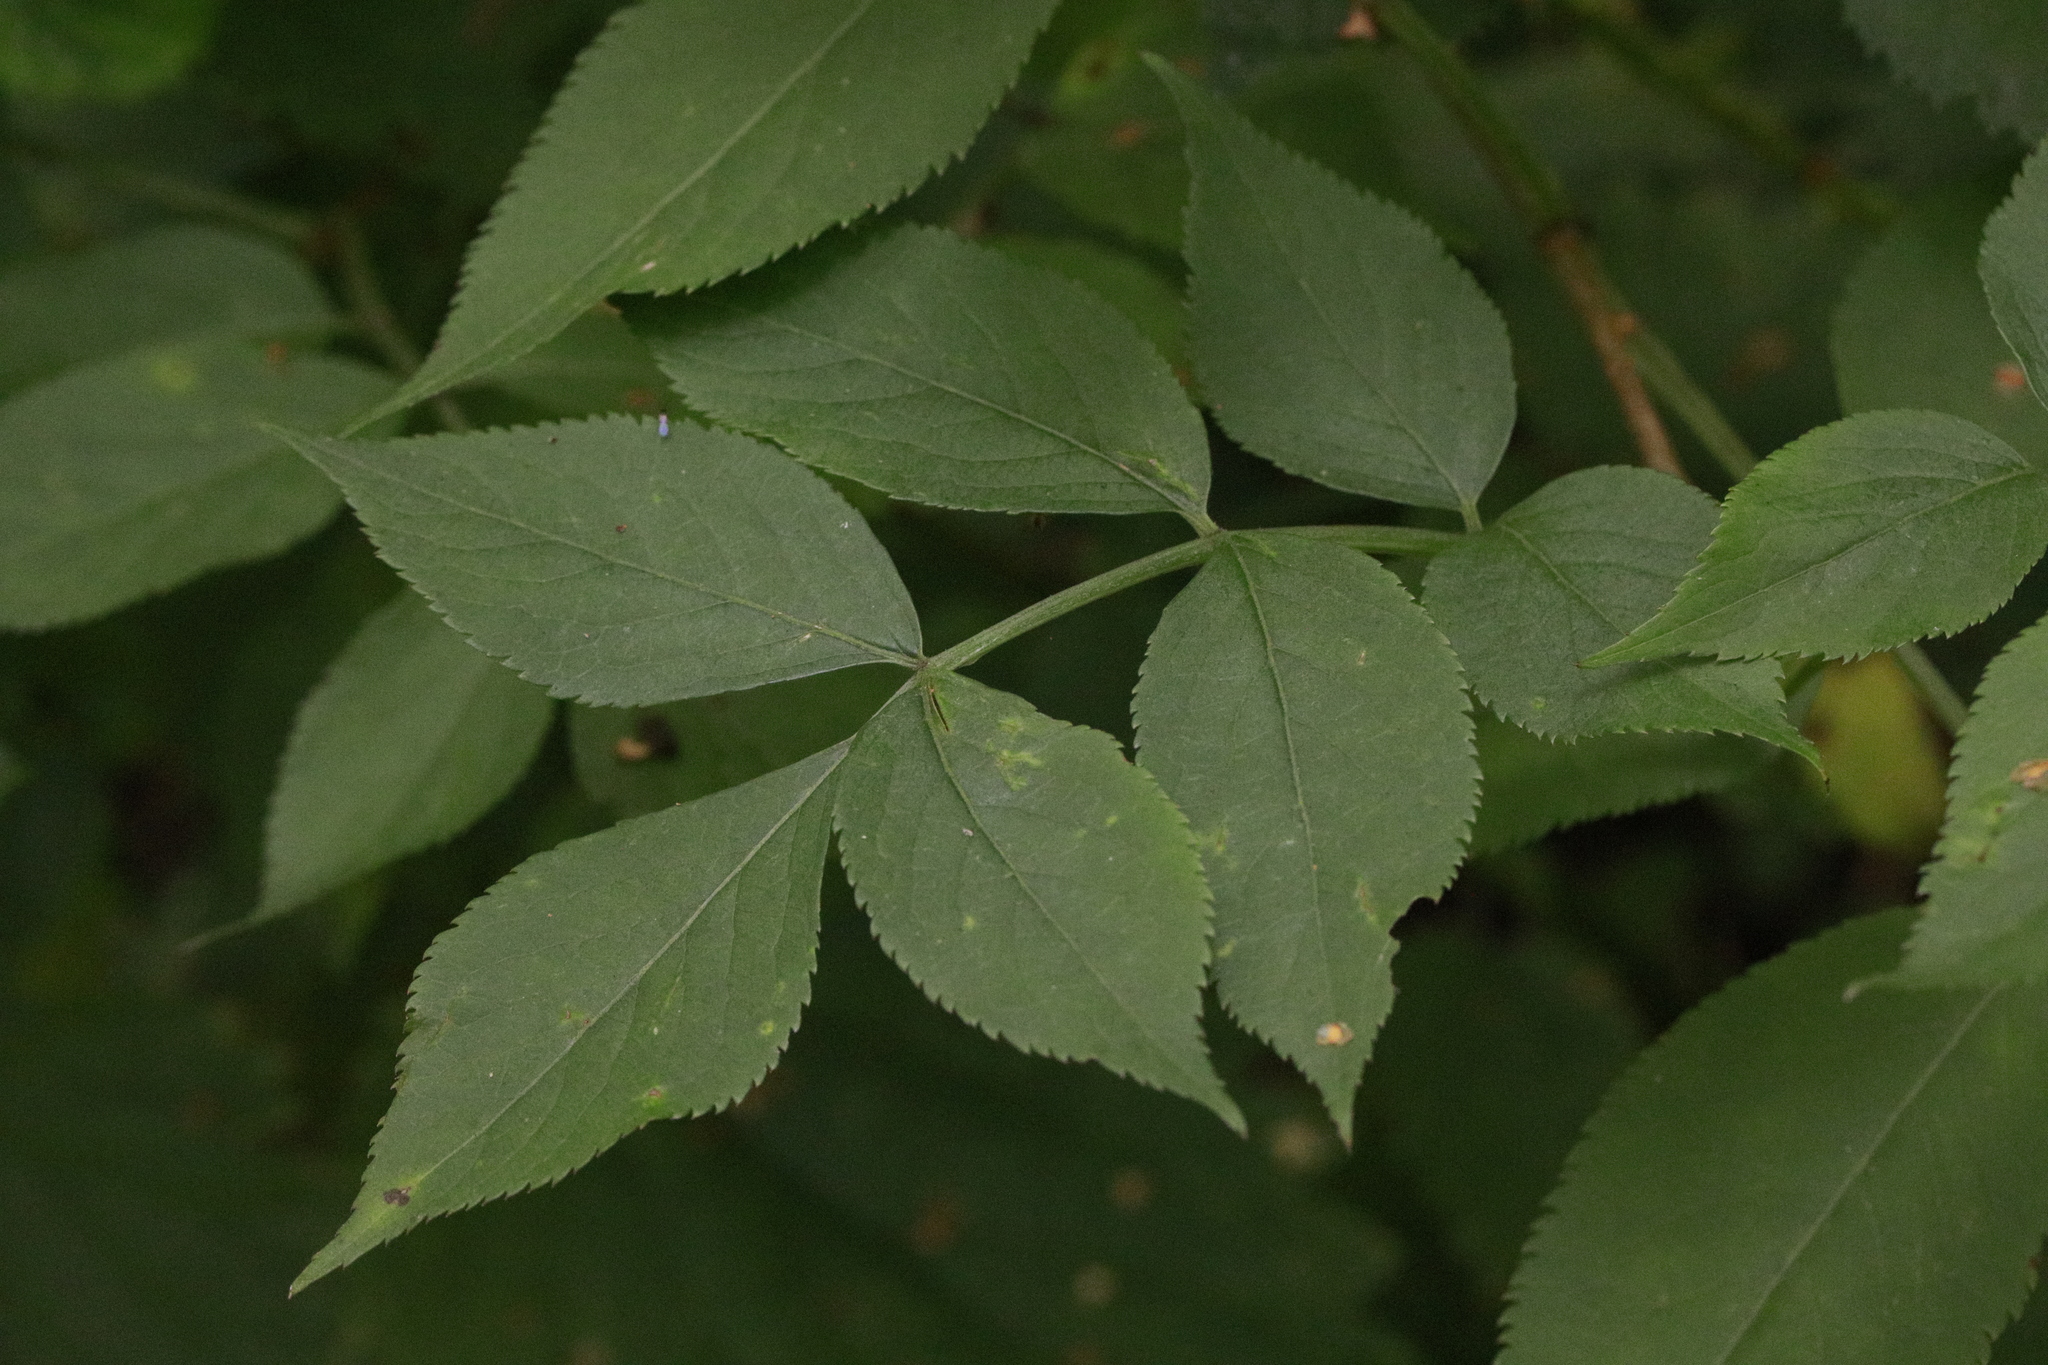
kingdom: Plantae
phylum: Tracheophyta
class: Magnoliopsida
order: Dipsacales
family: Viburnaceae
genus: Sambucus
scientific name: Sambucus nigra
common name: Elder
